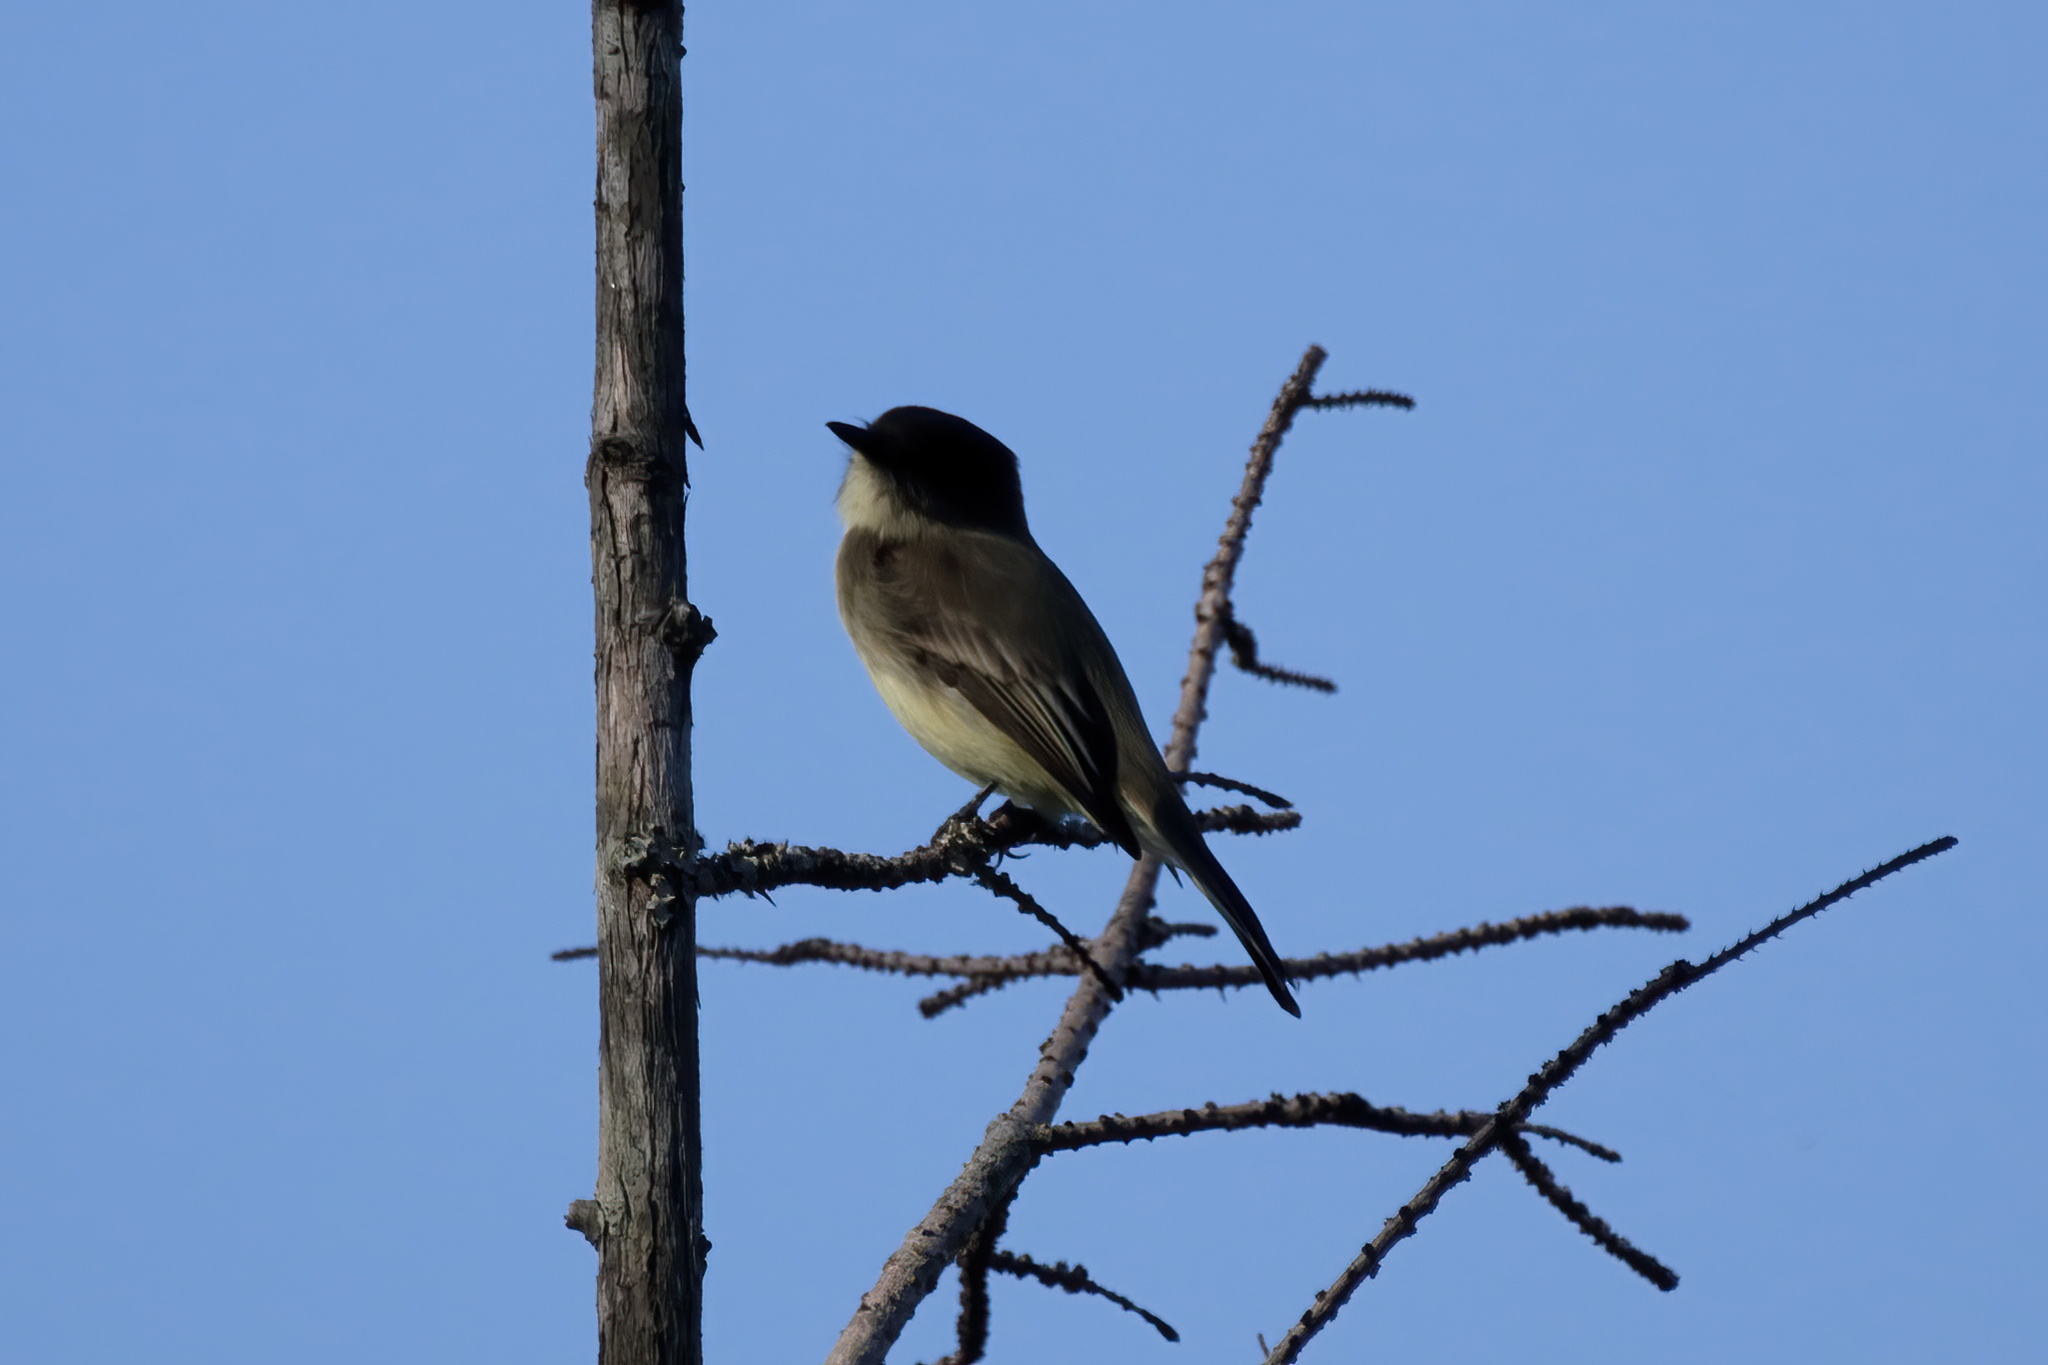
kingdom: Animalia
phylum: Chordata
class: Aves
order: Passeriformes
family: Tyrannidae
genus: Sayornis
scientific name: Sayornis phoebe
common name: Eastern phoebe
